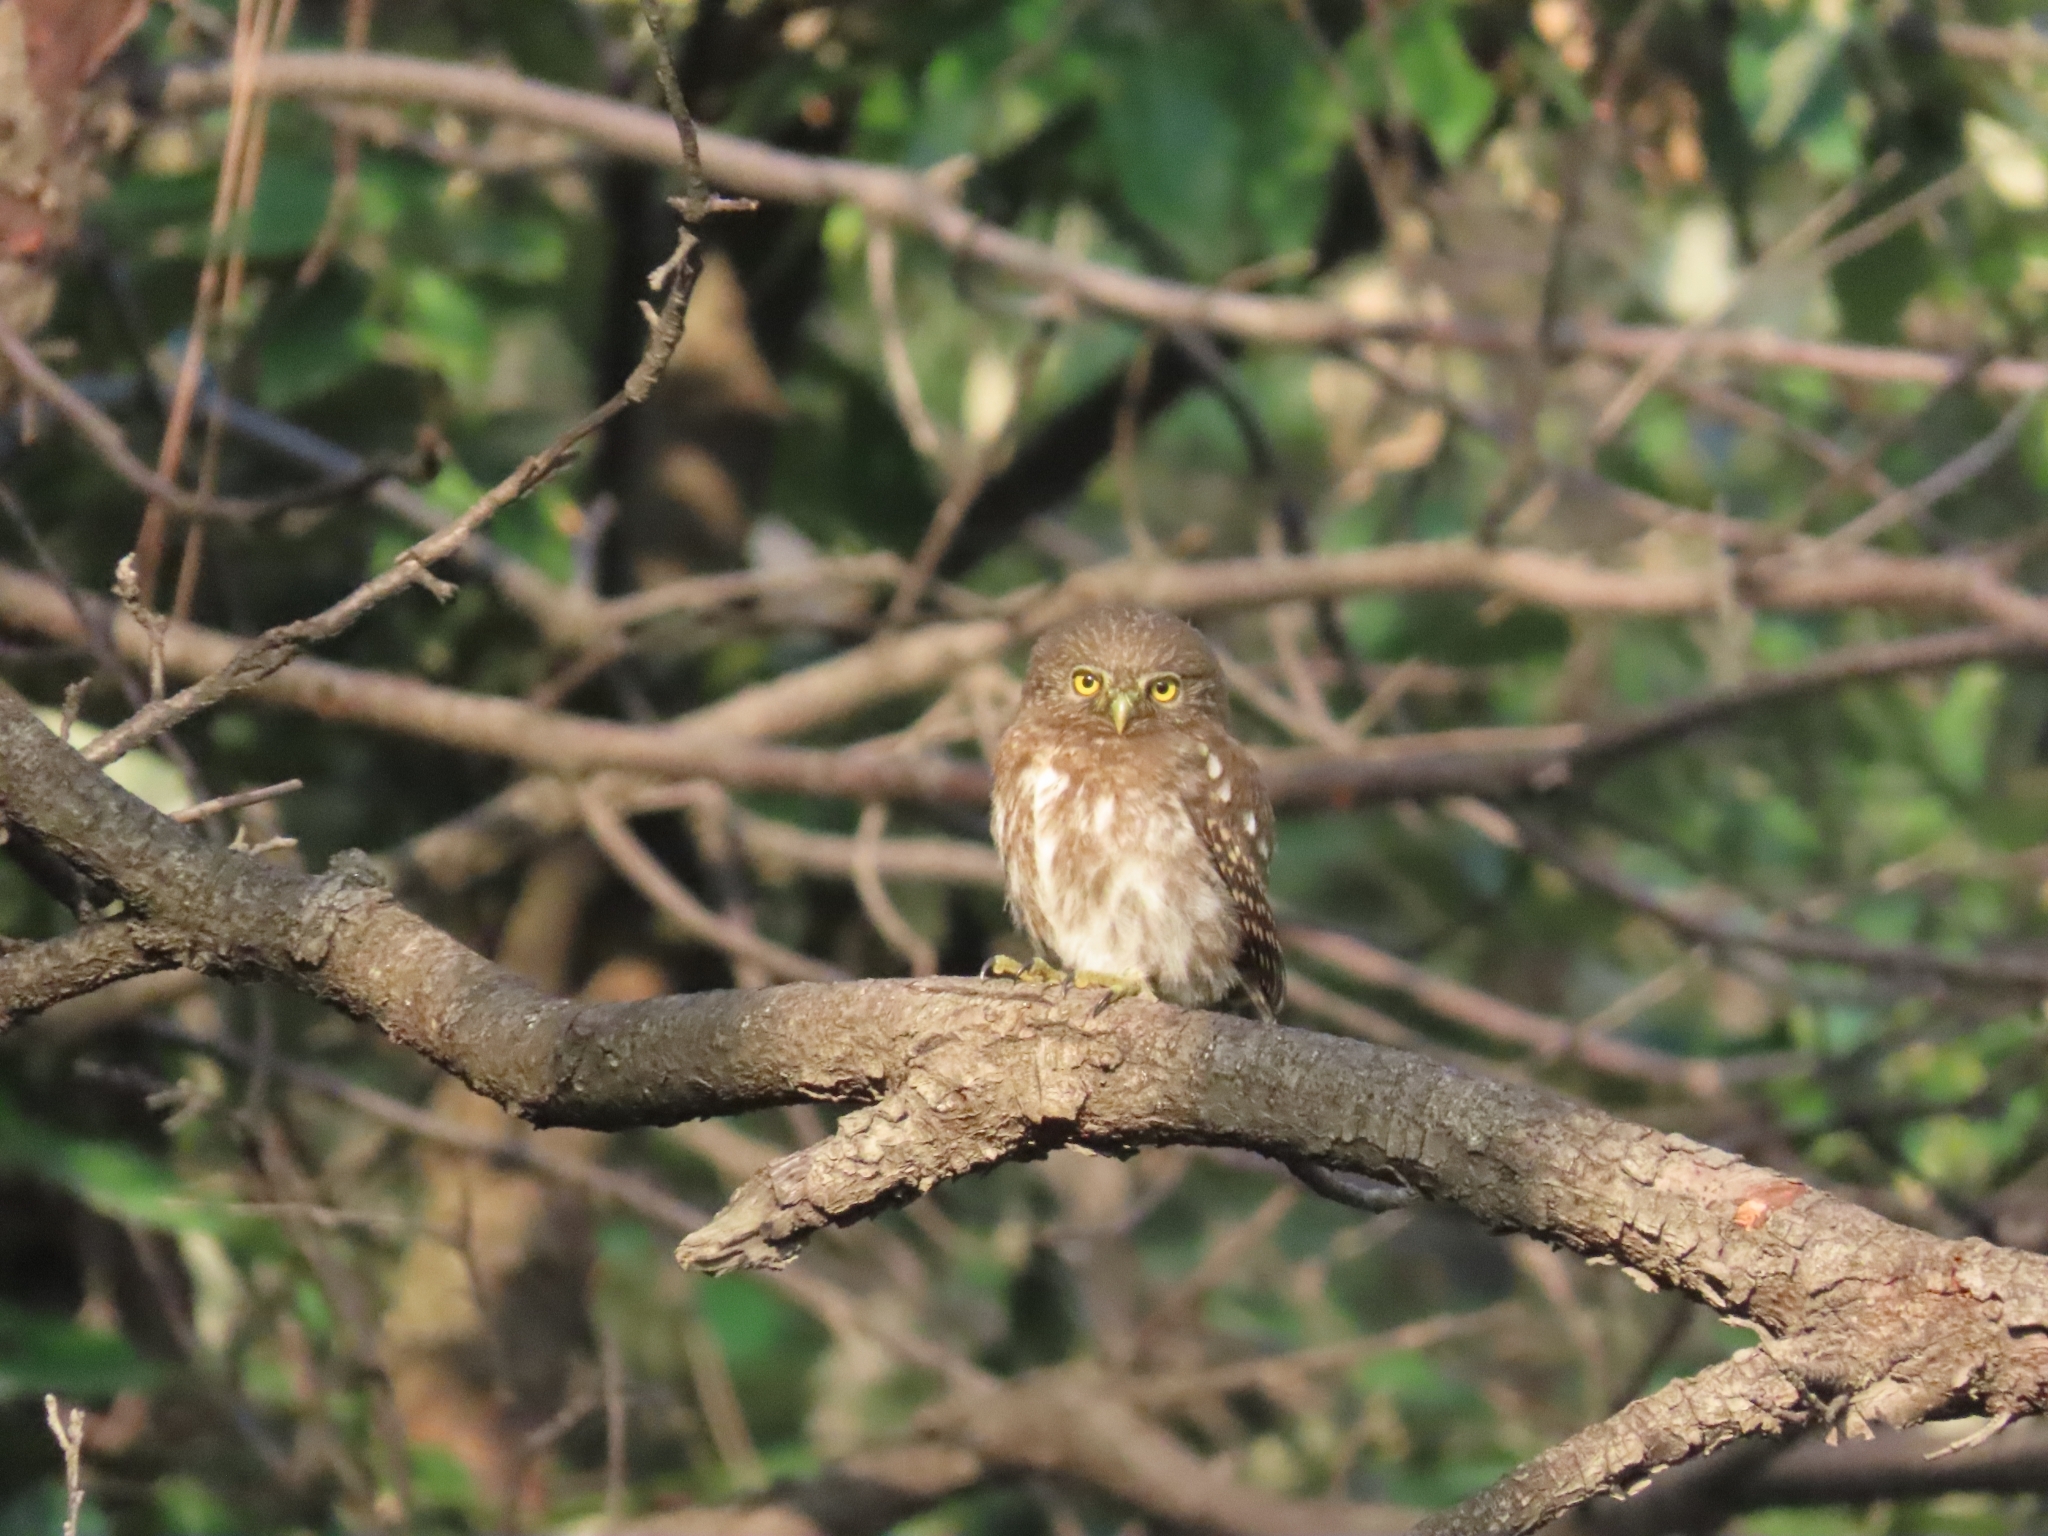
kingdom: Animalia
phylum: Chordata
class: Aves
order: Strigiformes
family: Strigidae
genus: Glaucidium
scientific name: Glaucidium cuculoides
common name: Asian barred owlet
